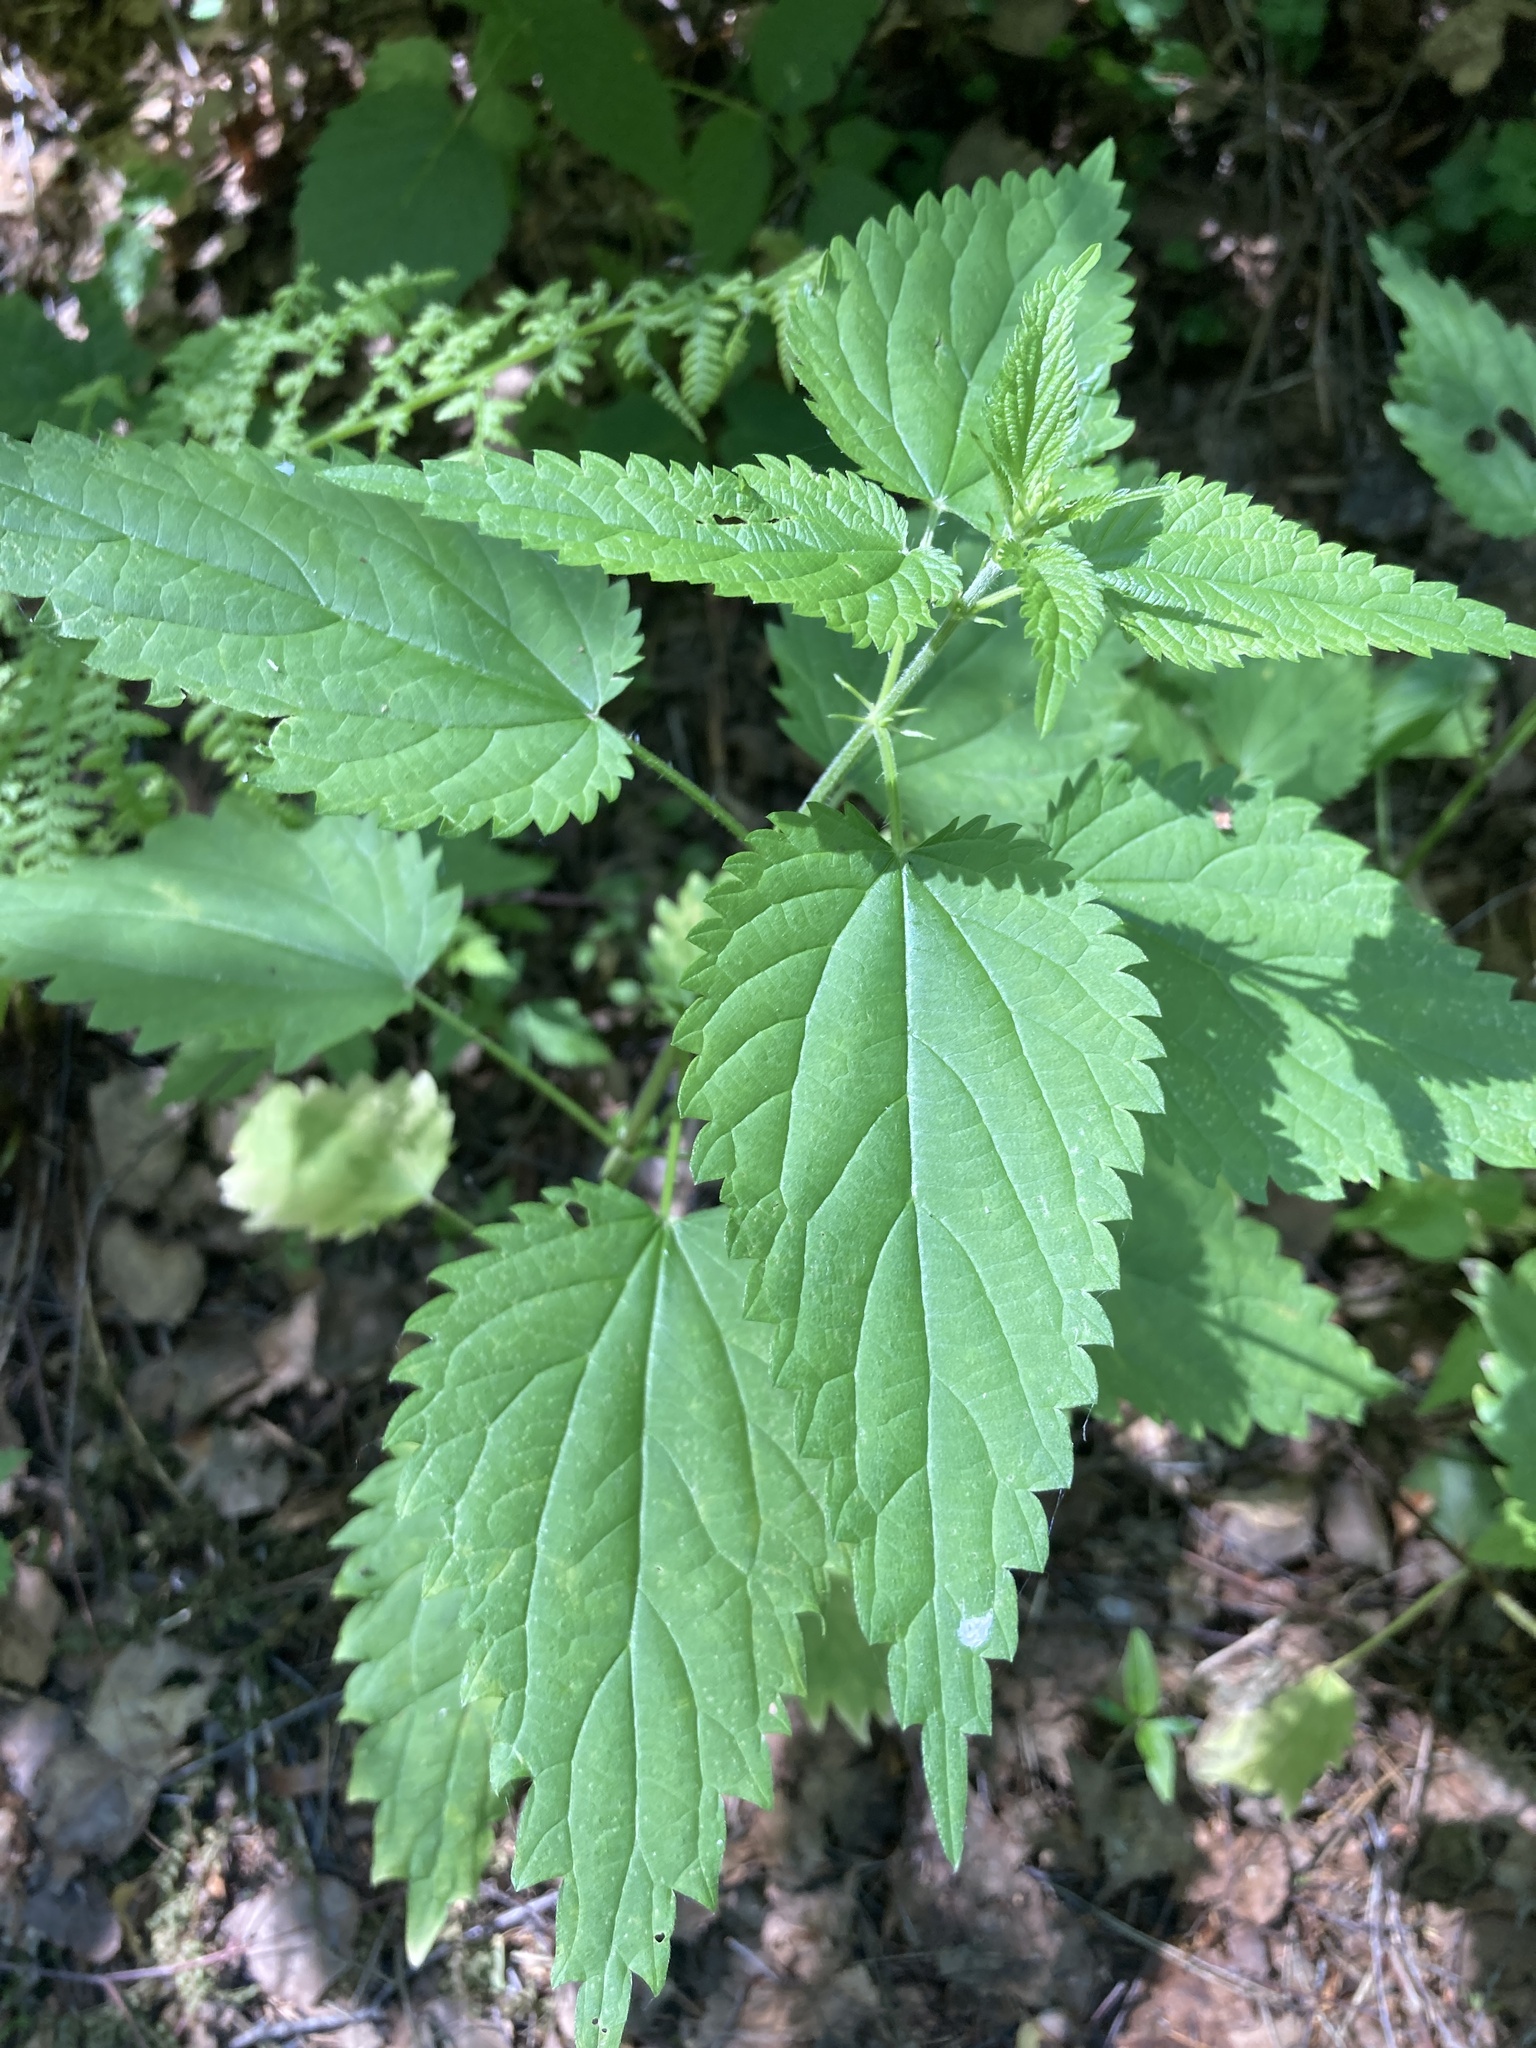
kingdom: Plantae
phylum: Tracheophyta
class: Magnoliopsida
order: Rosales
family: Urticaceae
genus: Urtica
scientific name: Urtica dioica
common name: Common nettle
